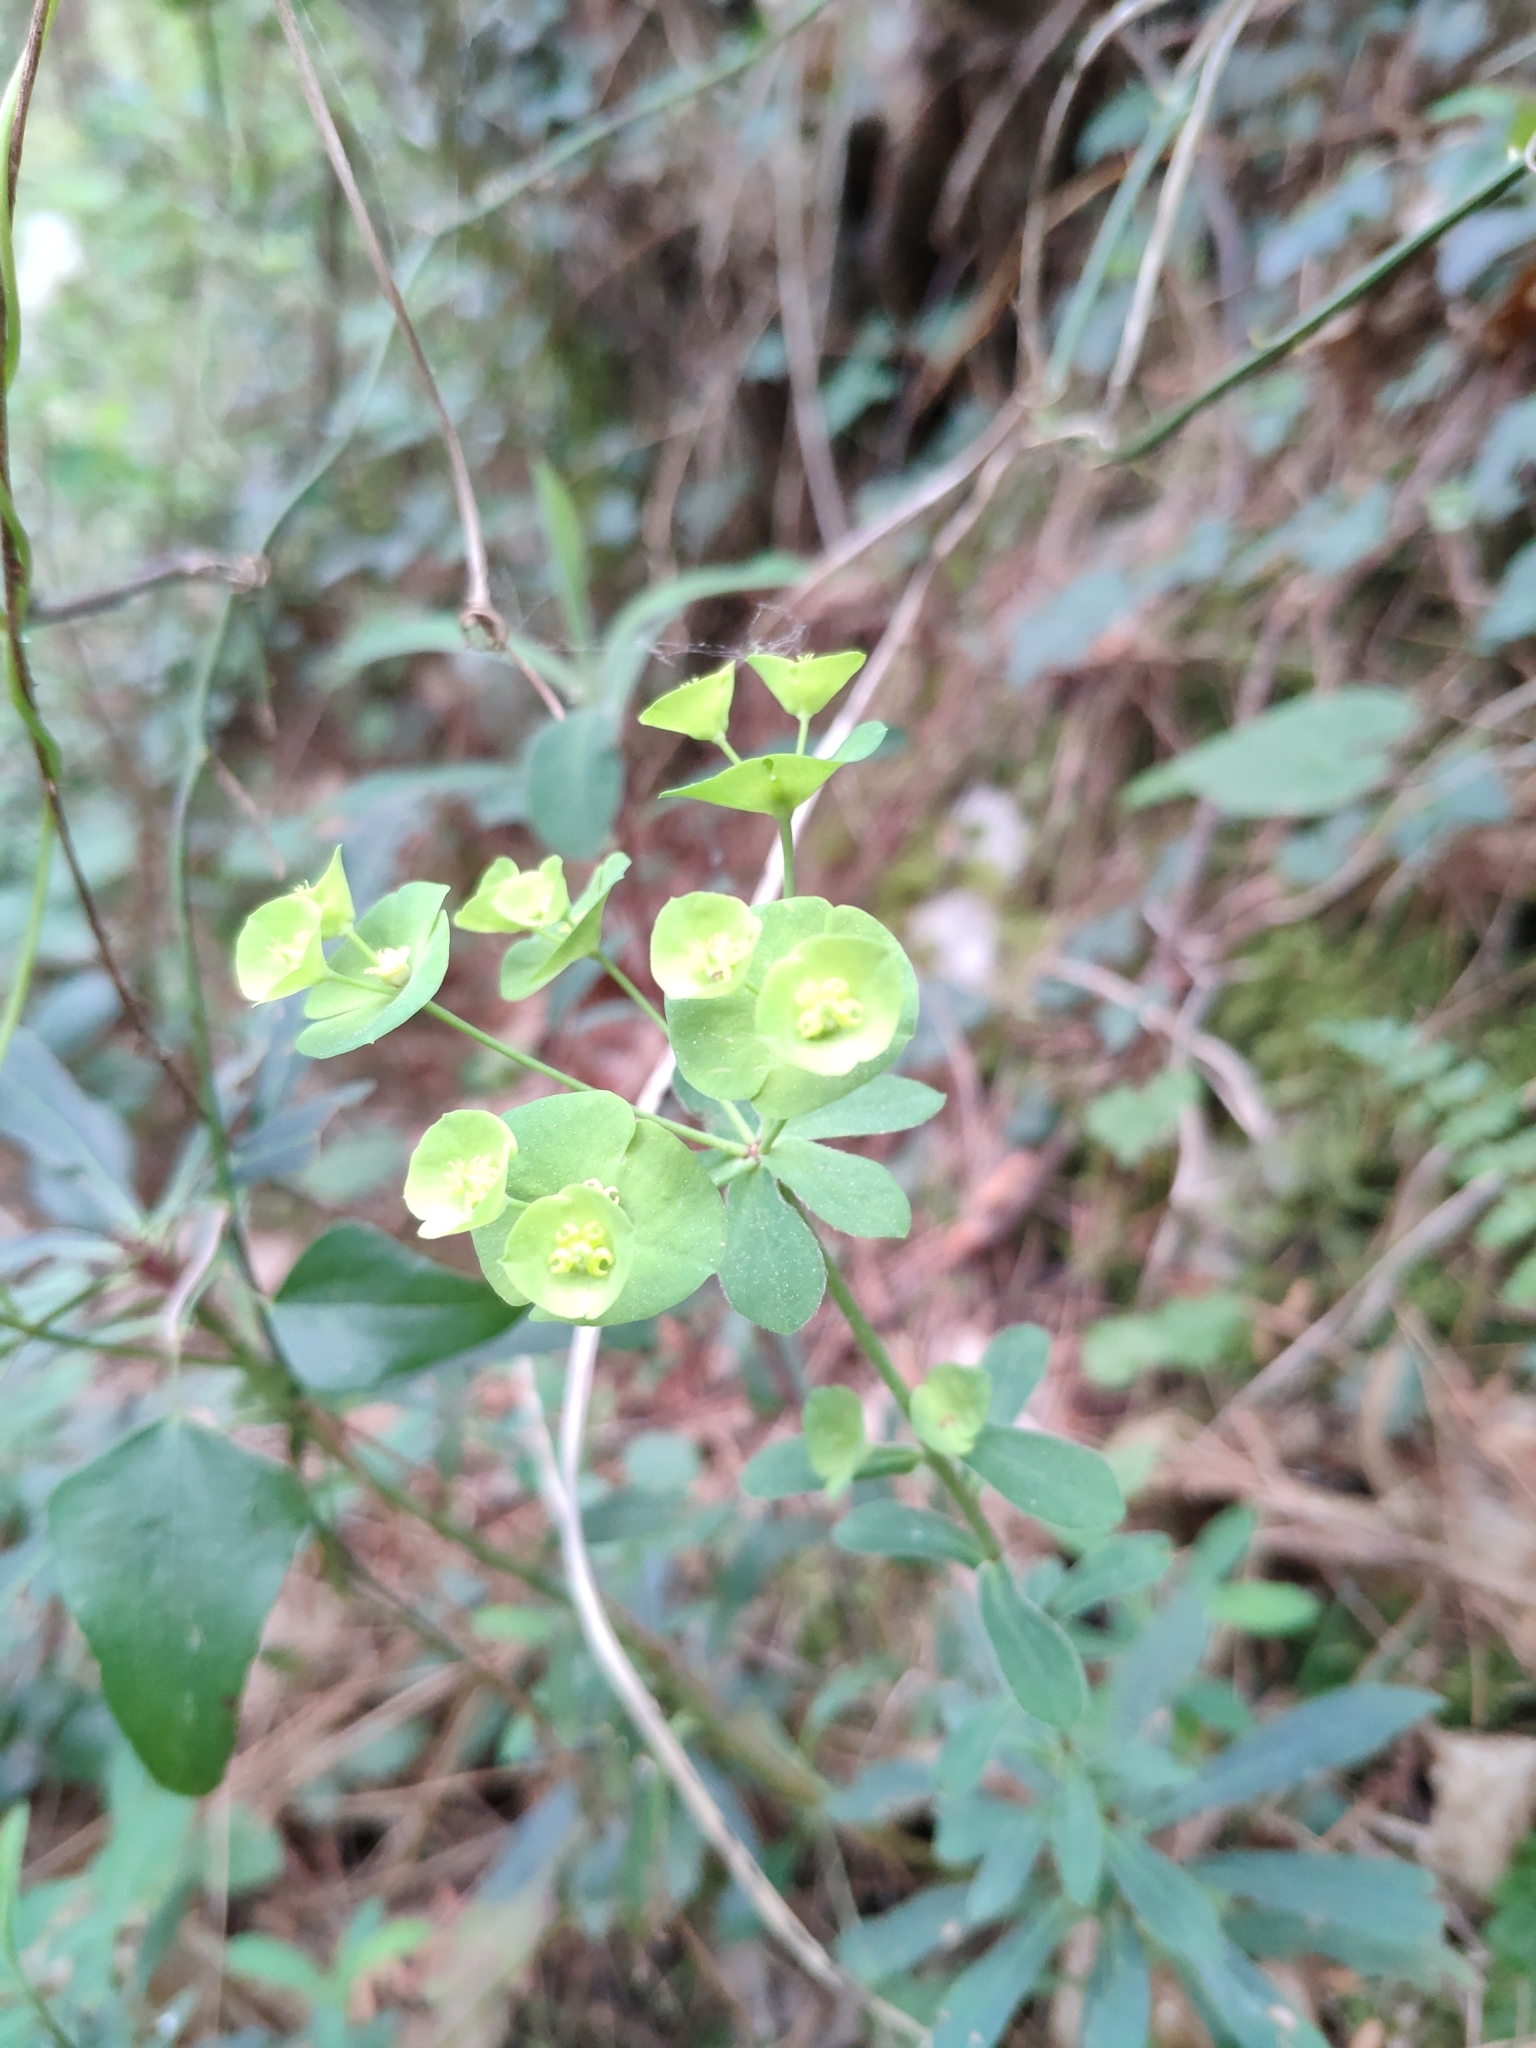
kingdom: Plantae
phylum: Tracheophyta
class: Magnoliopsida
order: Malpighiales
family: Euphorbiaceae
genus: Euphorbia
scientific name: Euphorbia amygdaloides
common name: Wood spurge
